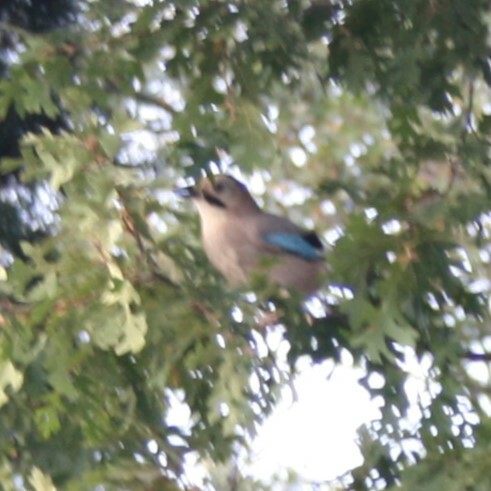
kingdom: Animalia
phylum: Chordata
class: Aves
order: Passeriformes
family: Corvidae
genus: Garrulus
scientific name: Garrulus glandarius
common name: Eurasian jay
